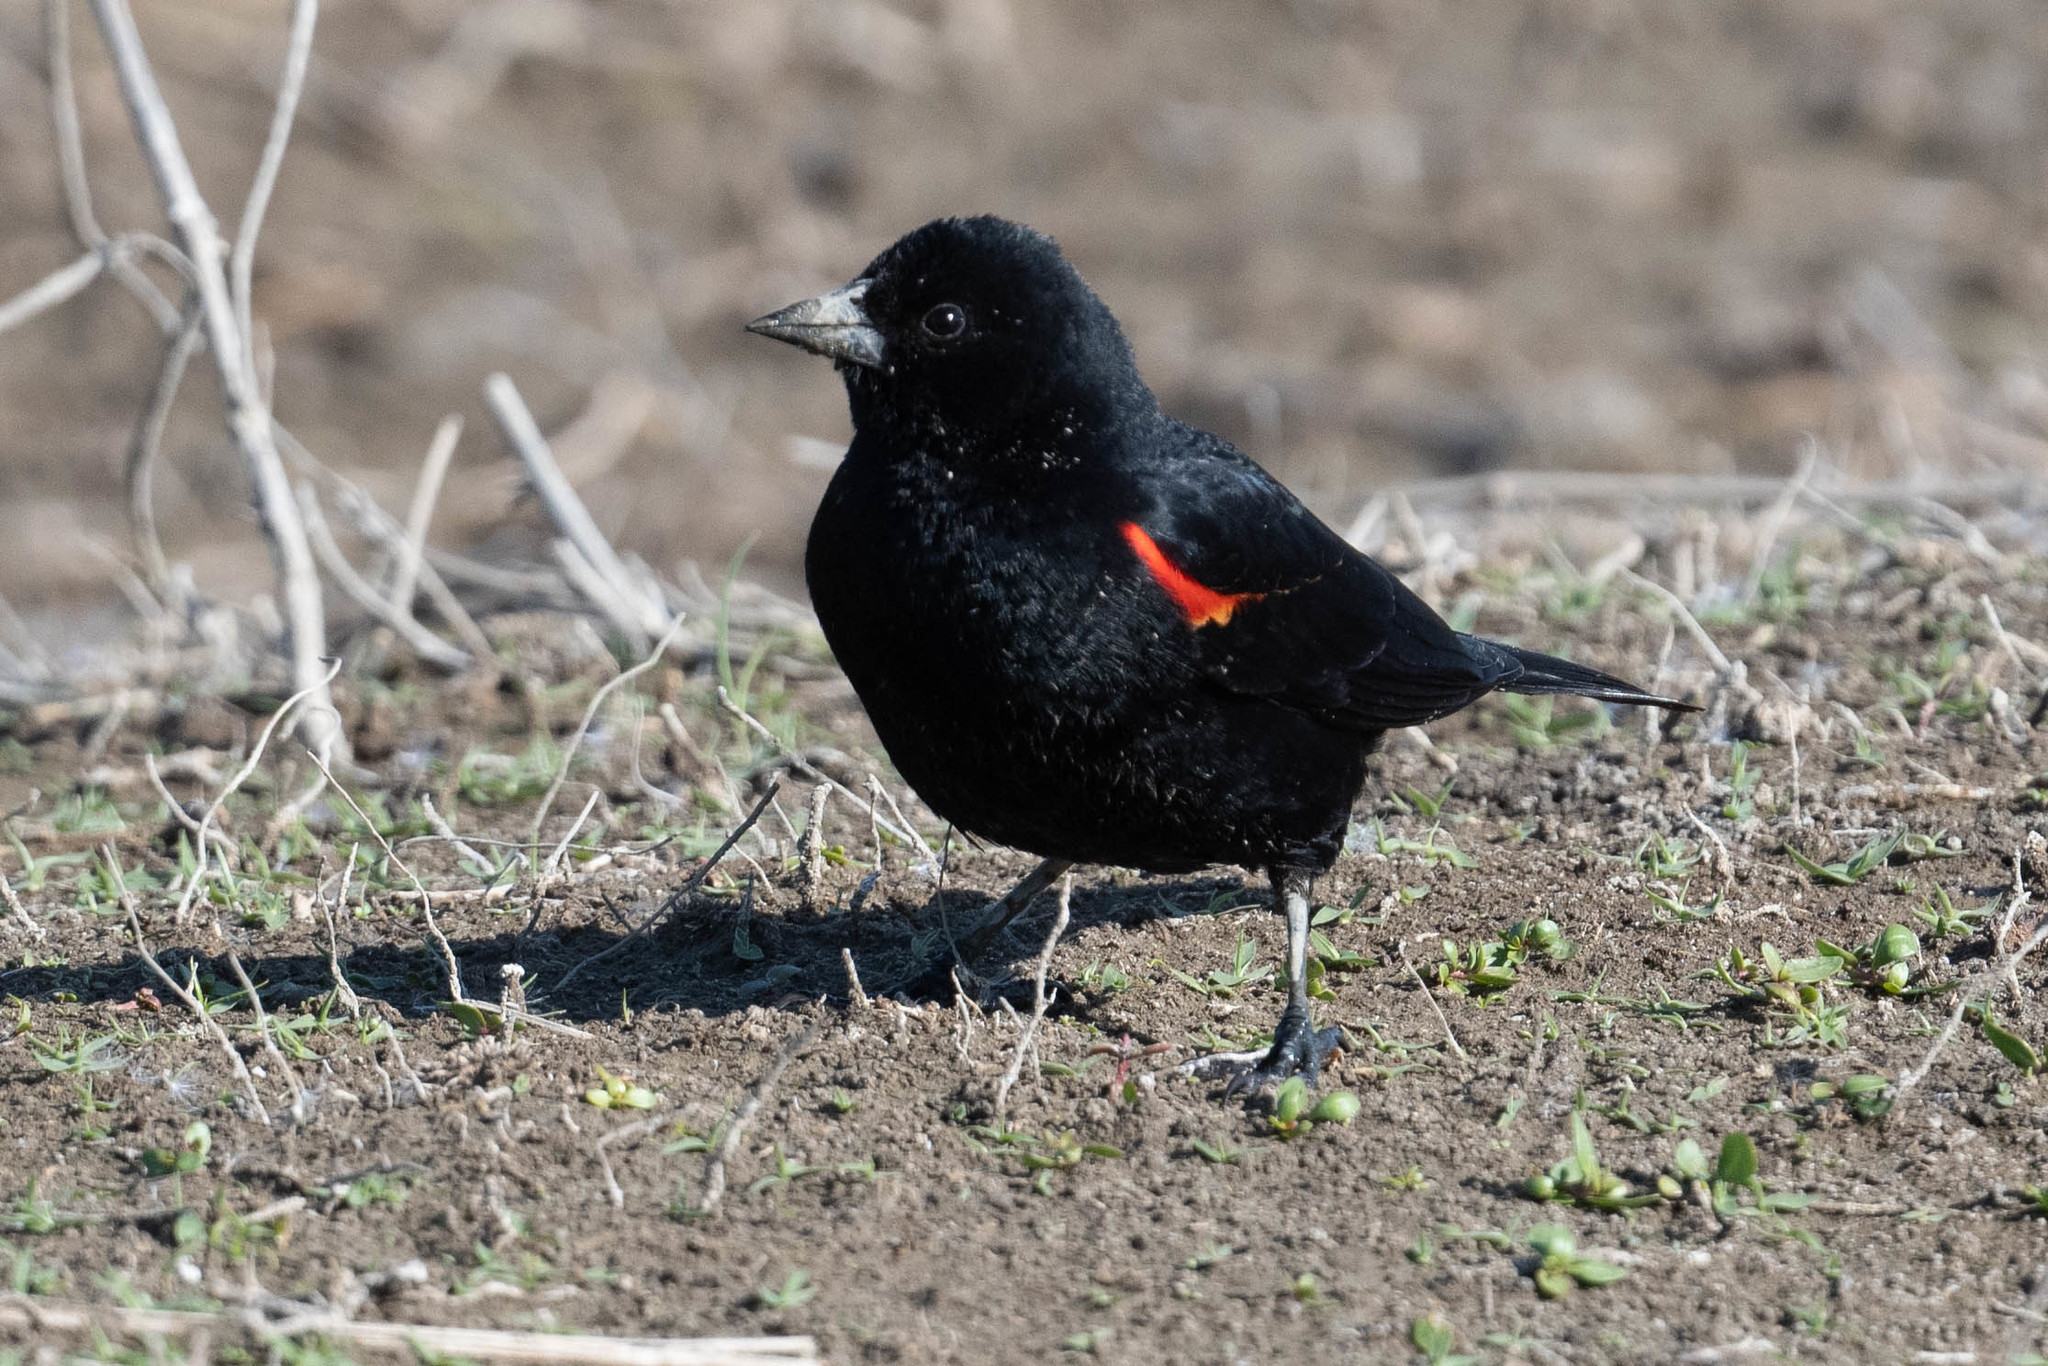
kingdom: Animalia
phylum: Chordata
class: Aves
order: Passeriformes
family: Icteridae
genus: Agelaius
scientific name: Agelaius phoeniceus
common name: Red-winged blackbird
